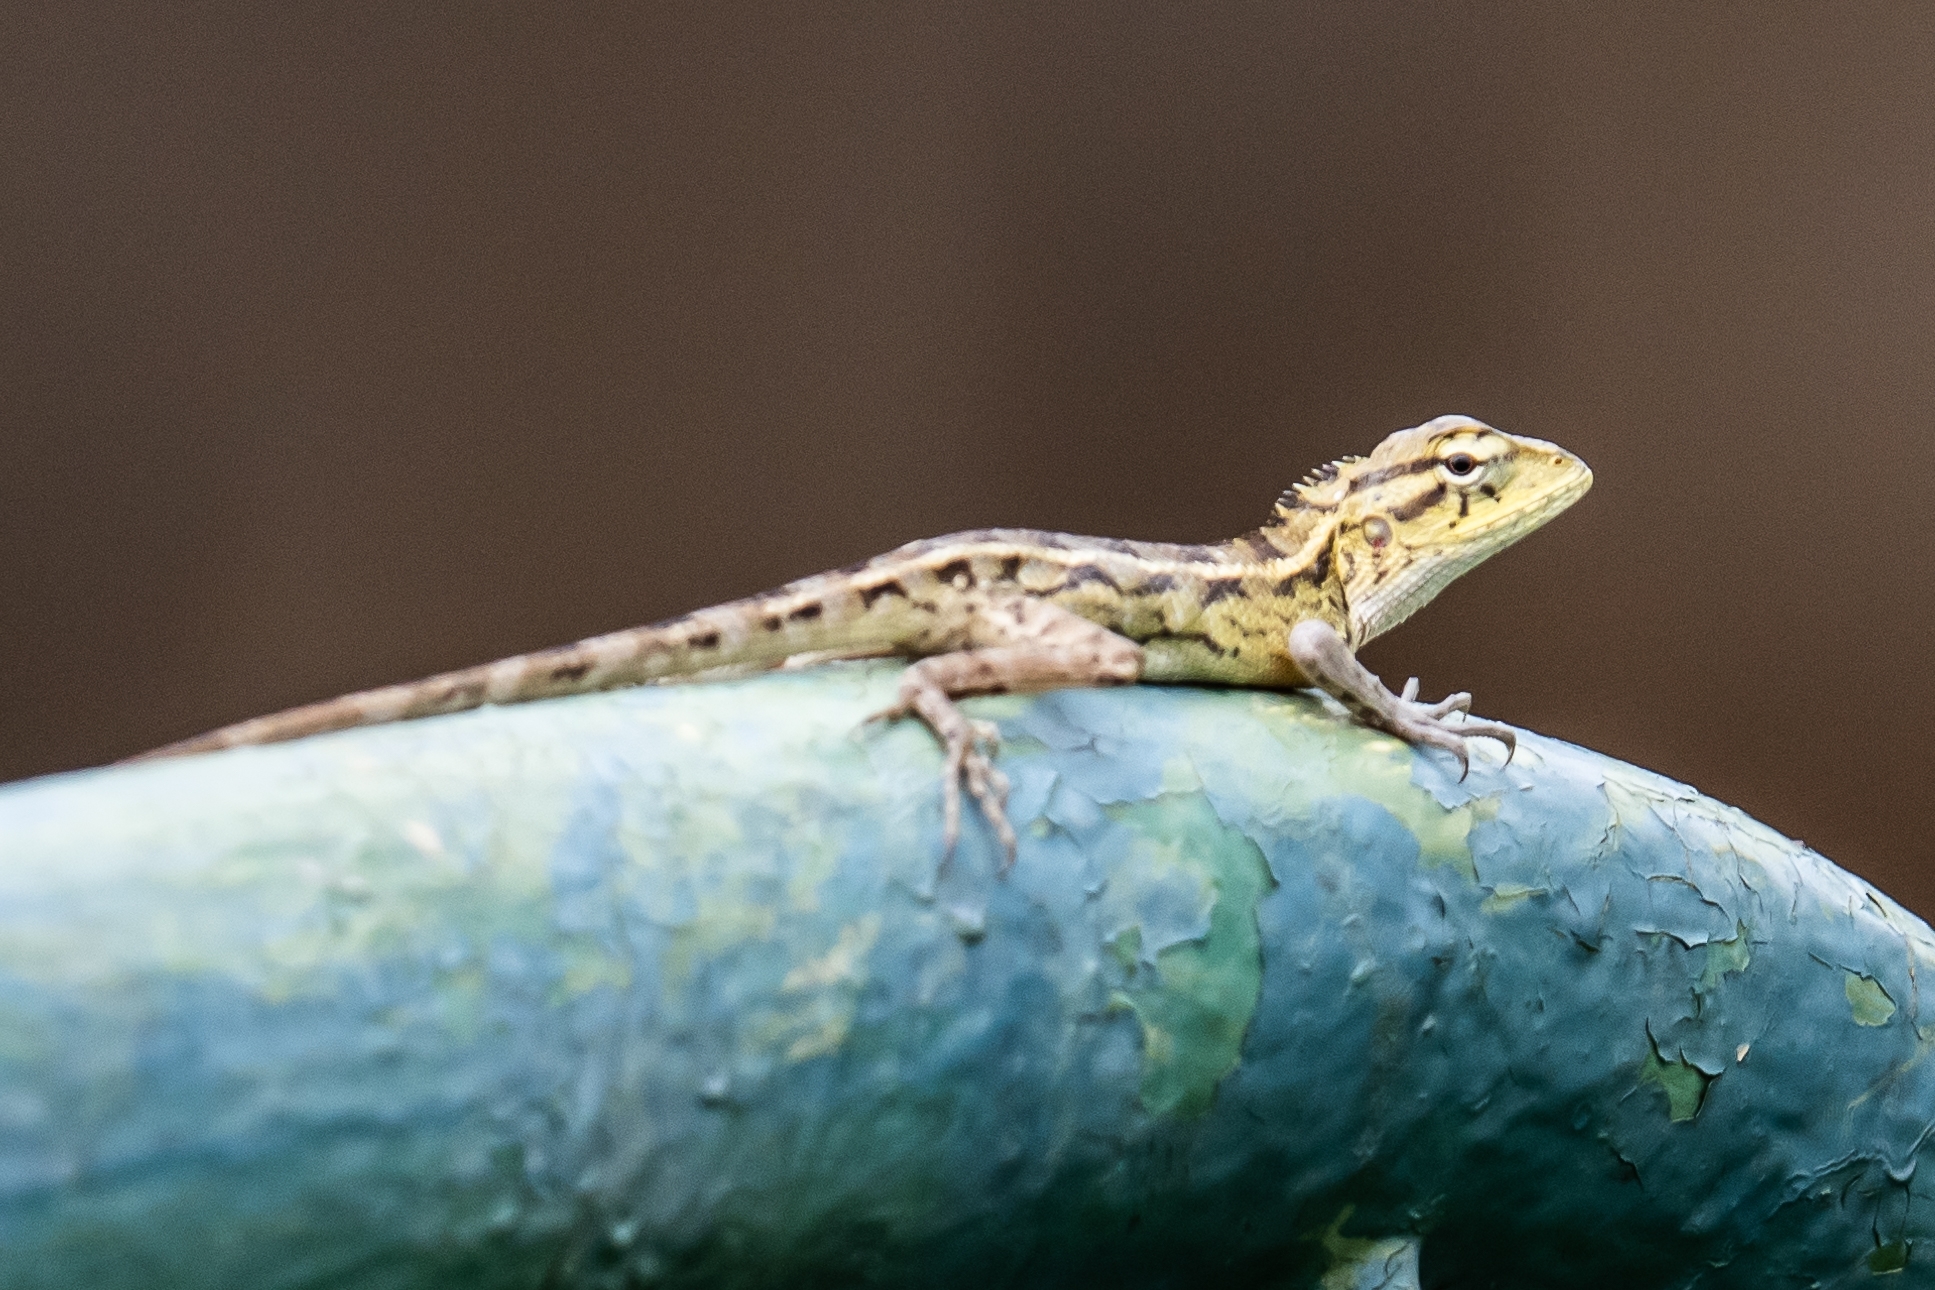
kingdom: Animalia
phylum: Chordata
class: Squamata
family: Agamidae
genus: Calotes
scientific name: Calotes versicolor
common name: Oriental garden lizard
